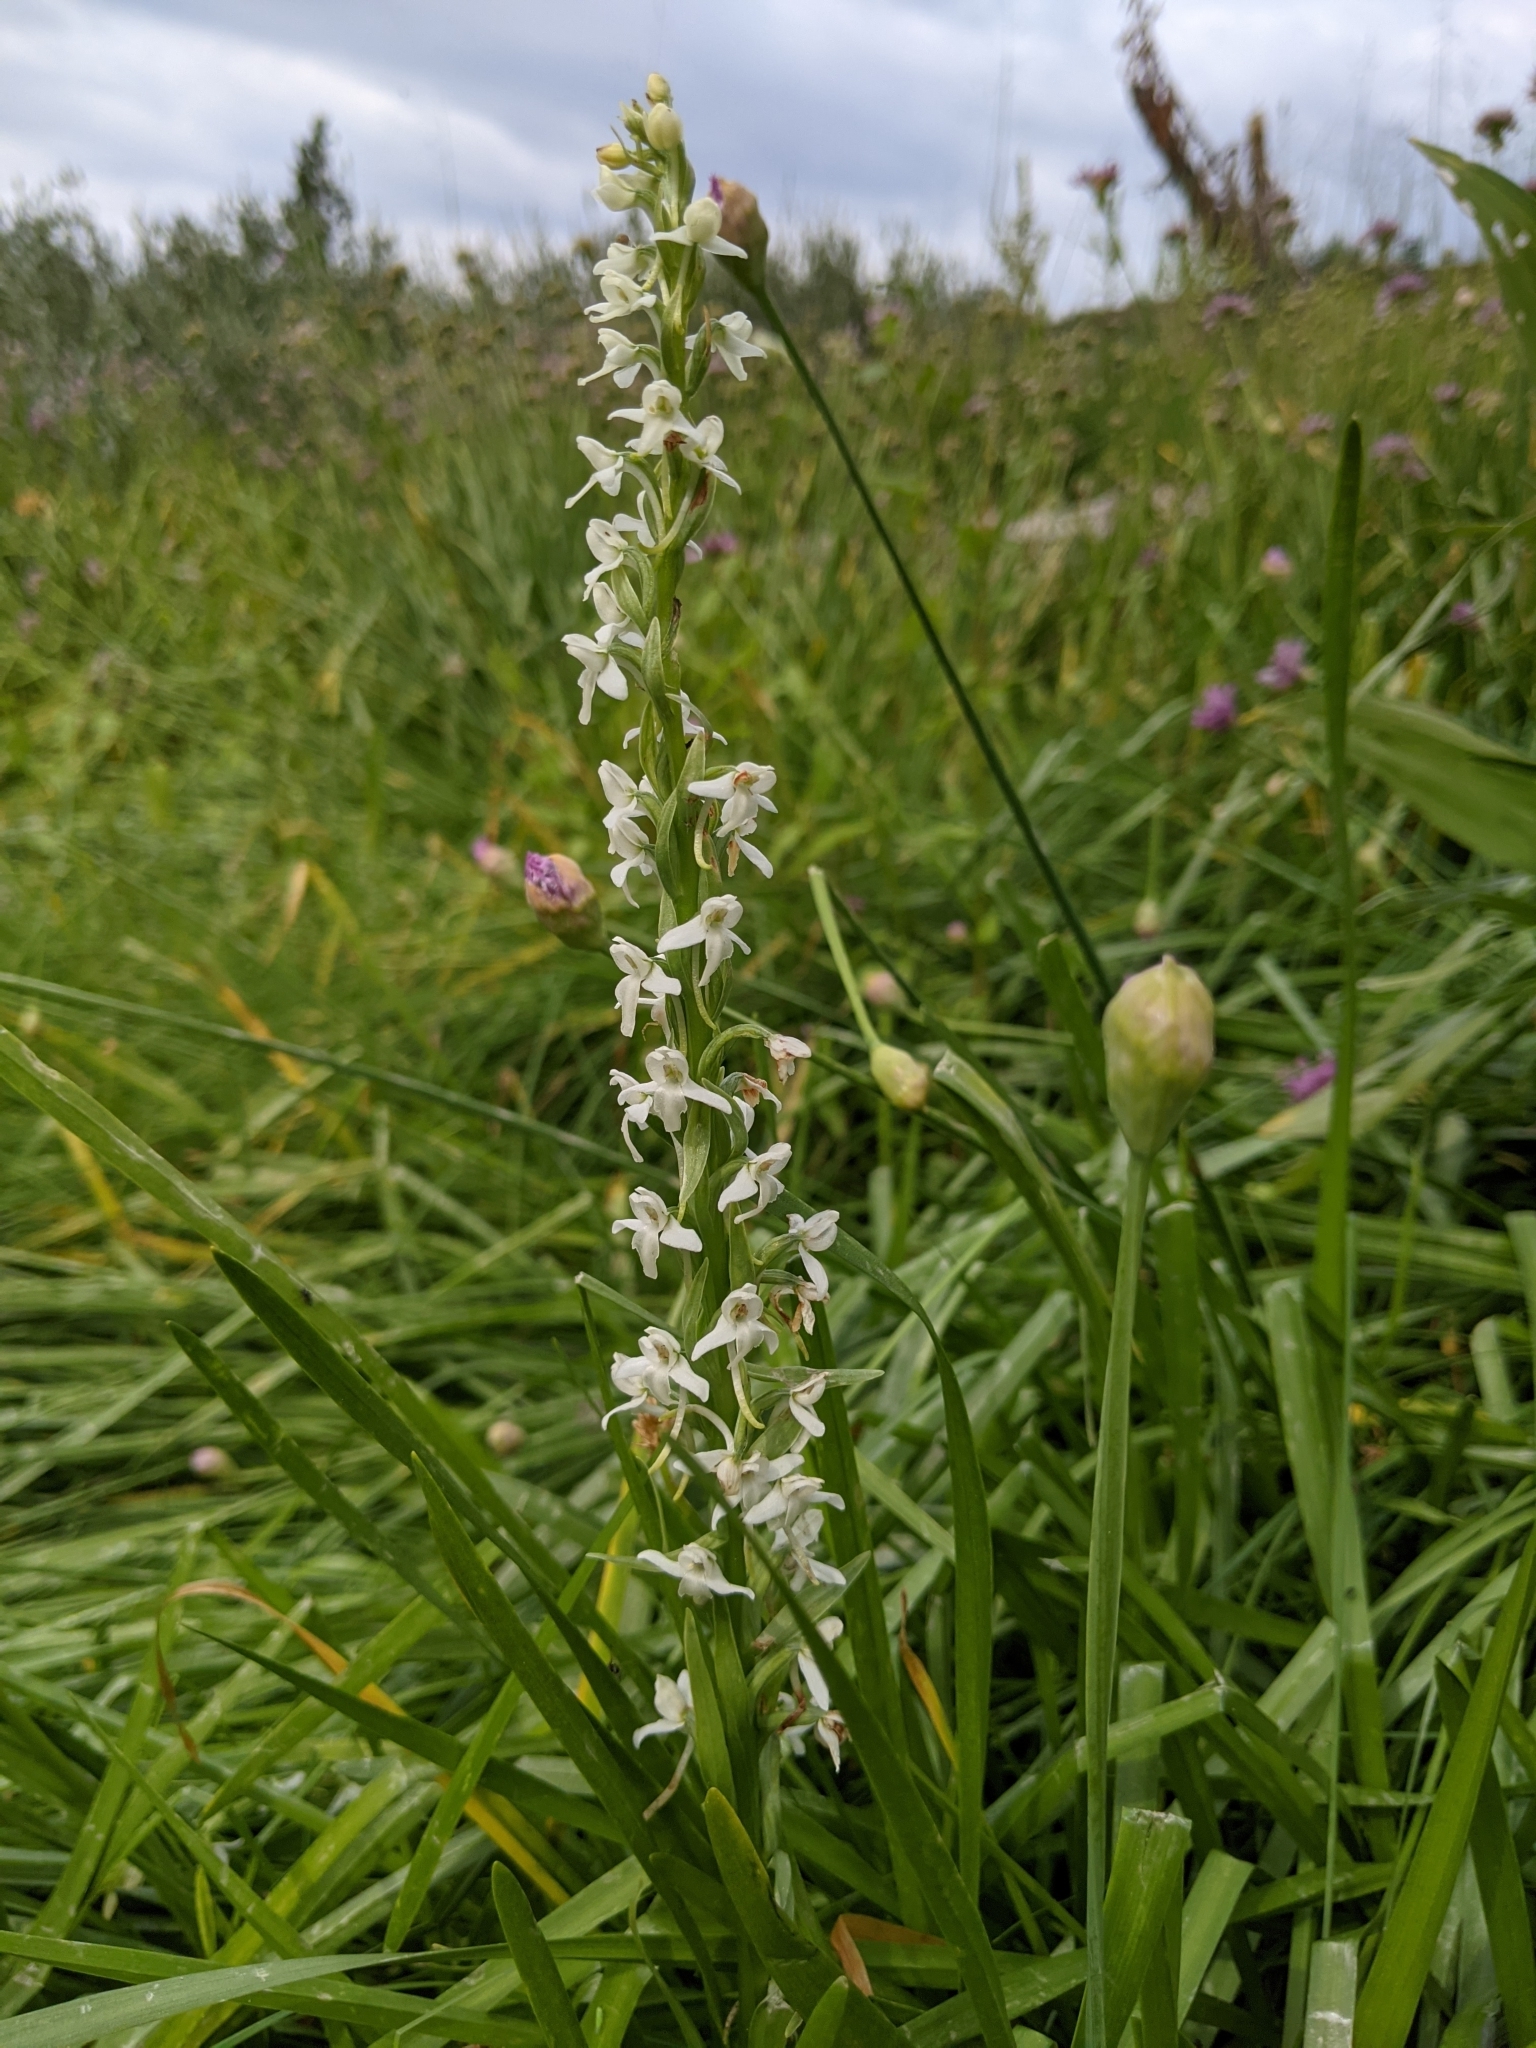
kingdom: Plantae
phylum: Tracheophyta
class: Liliopsida
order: Asparagales
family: Orchidaceae
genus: Platanthera
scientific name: Platanthera dilatata
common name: Bog candles
